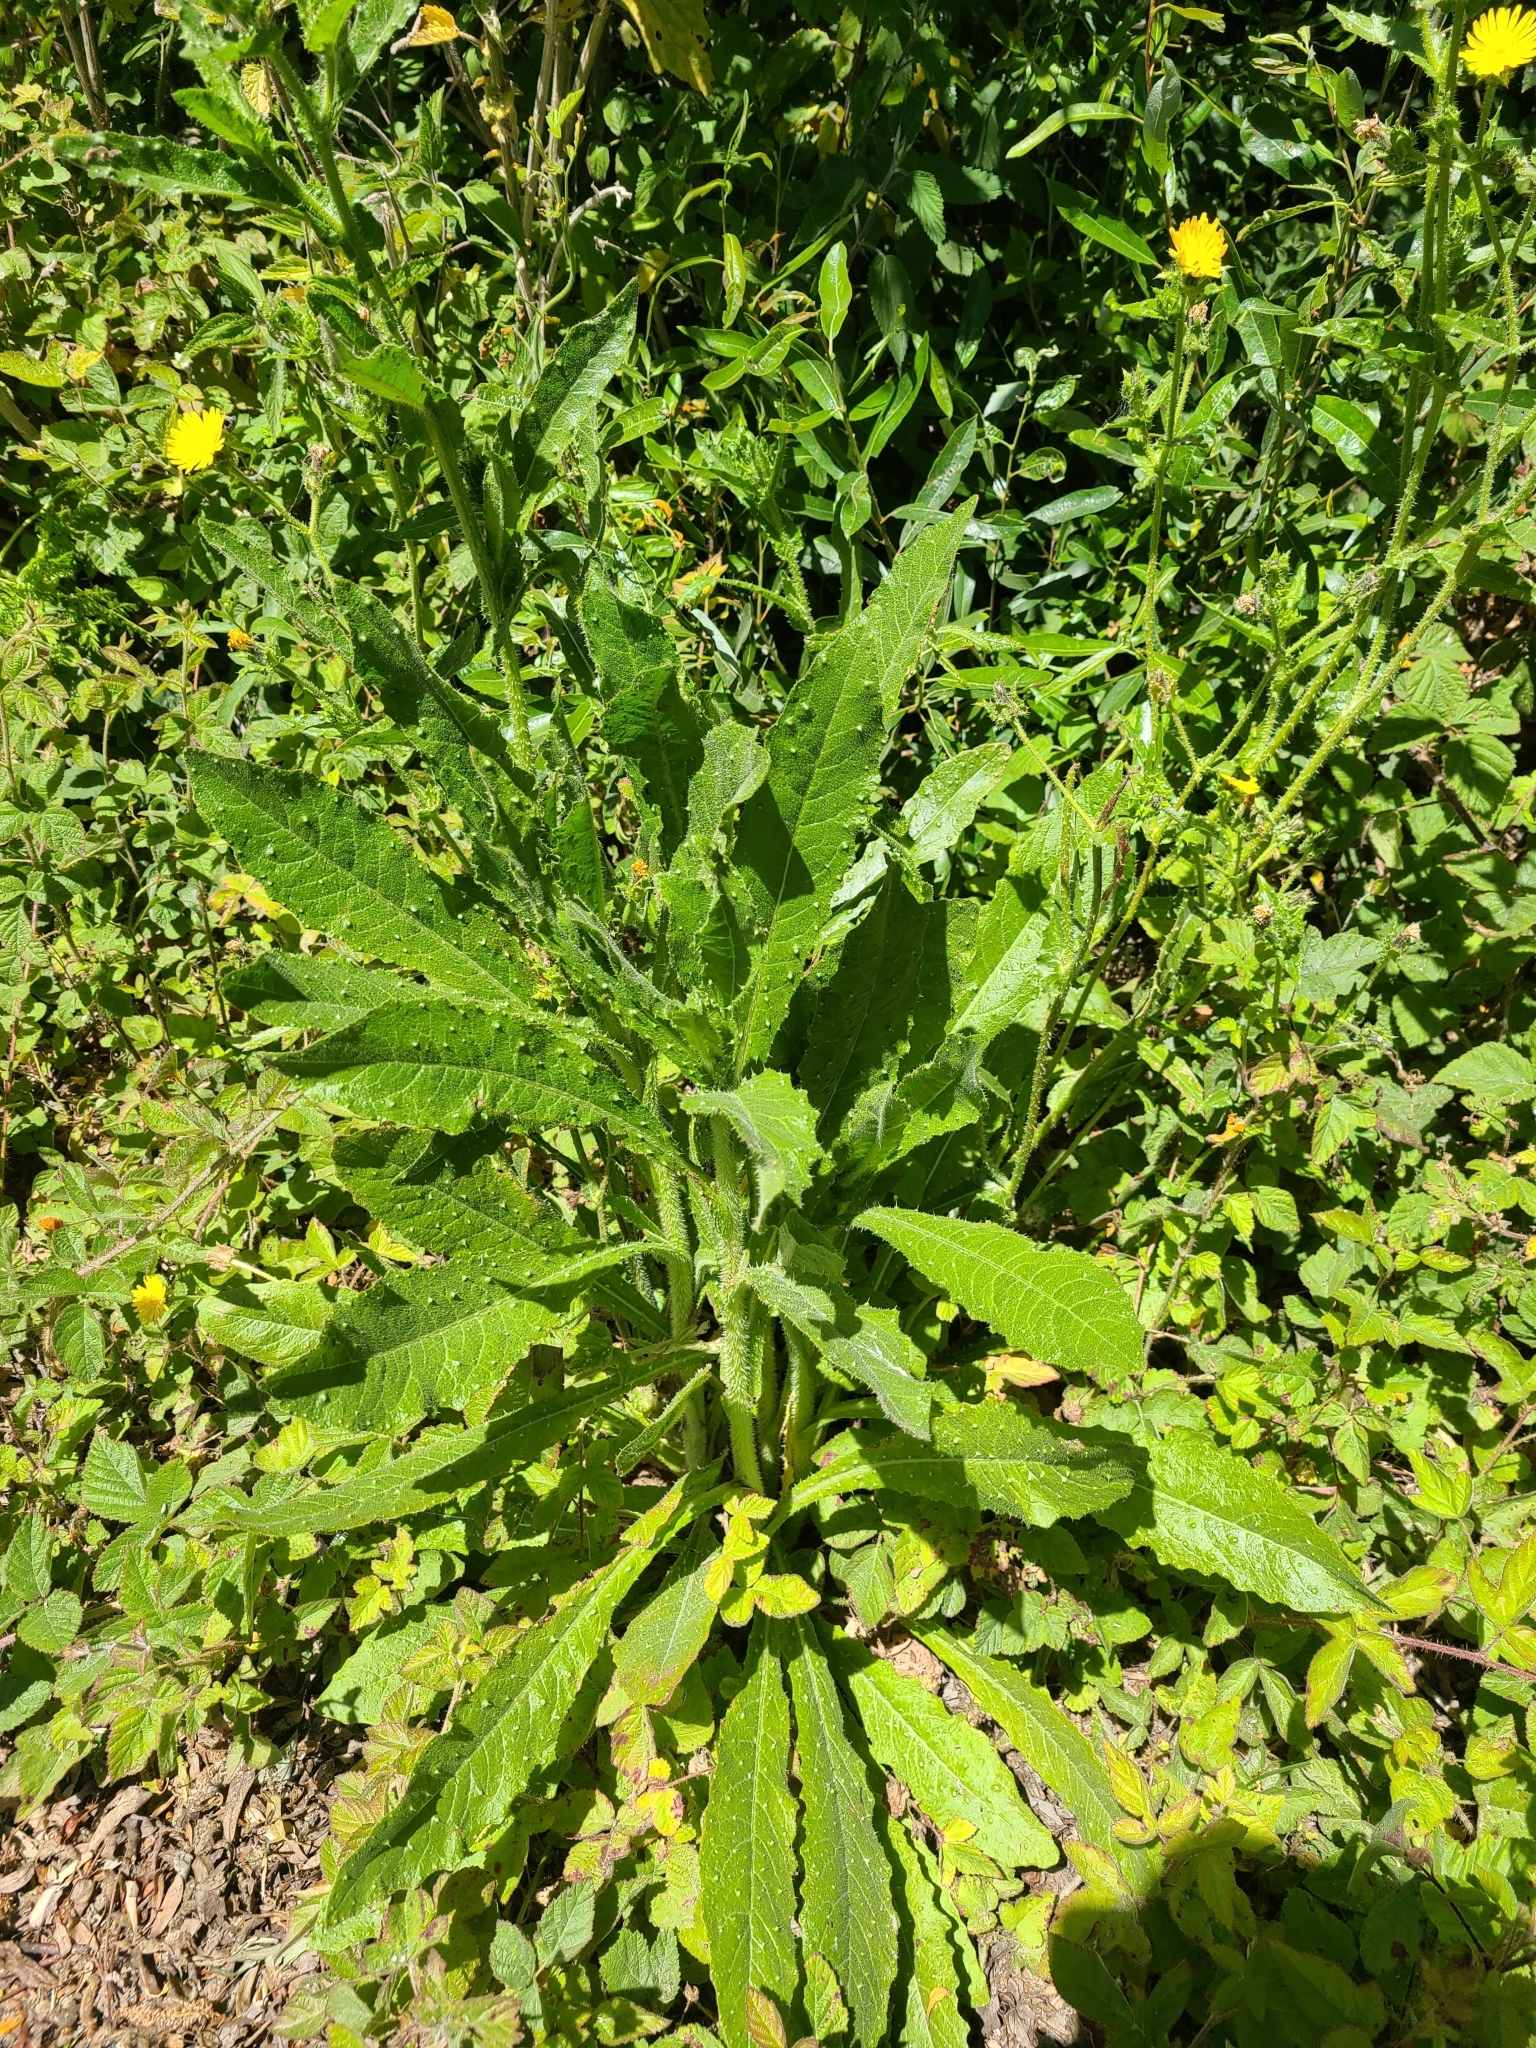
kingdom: Plantae
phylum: Tracheophyta
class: Magnoliopsida
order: Asterales
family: Asteraceae
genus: Helminthotheca
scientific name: Helminthotheca echioides
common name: Ox-tongue
